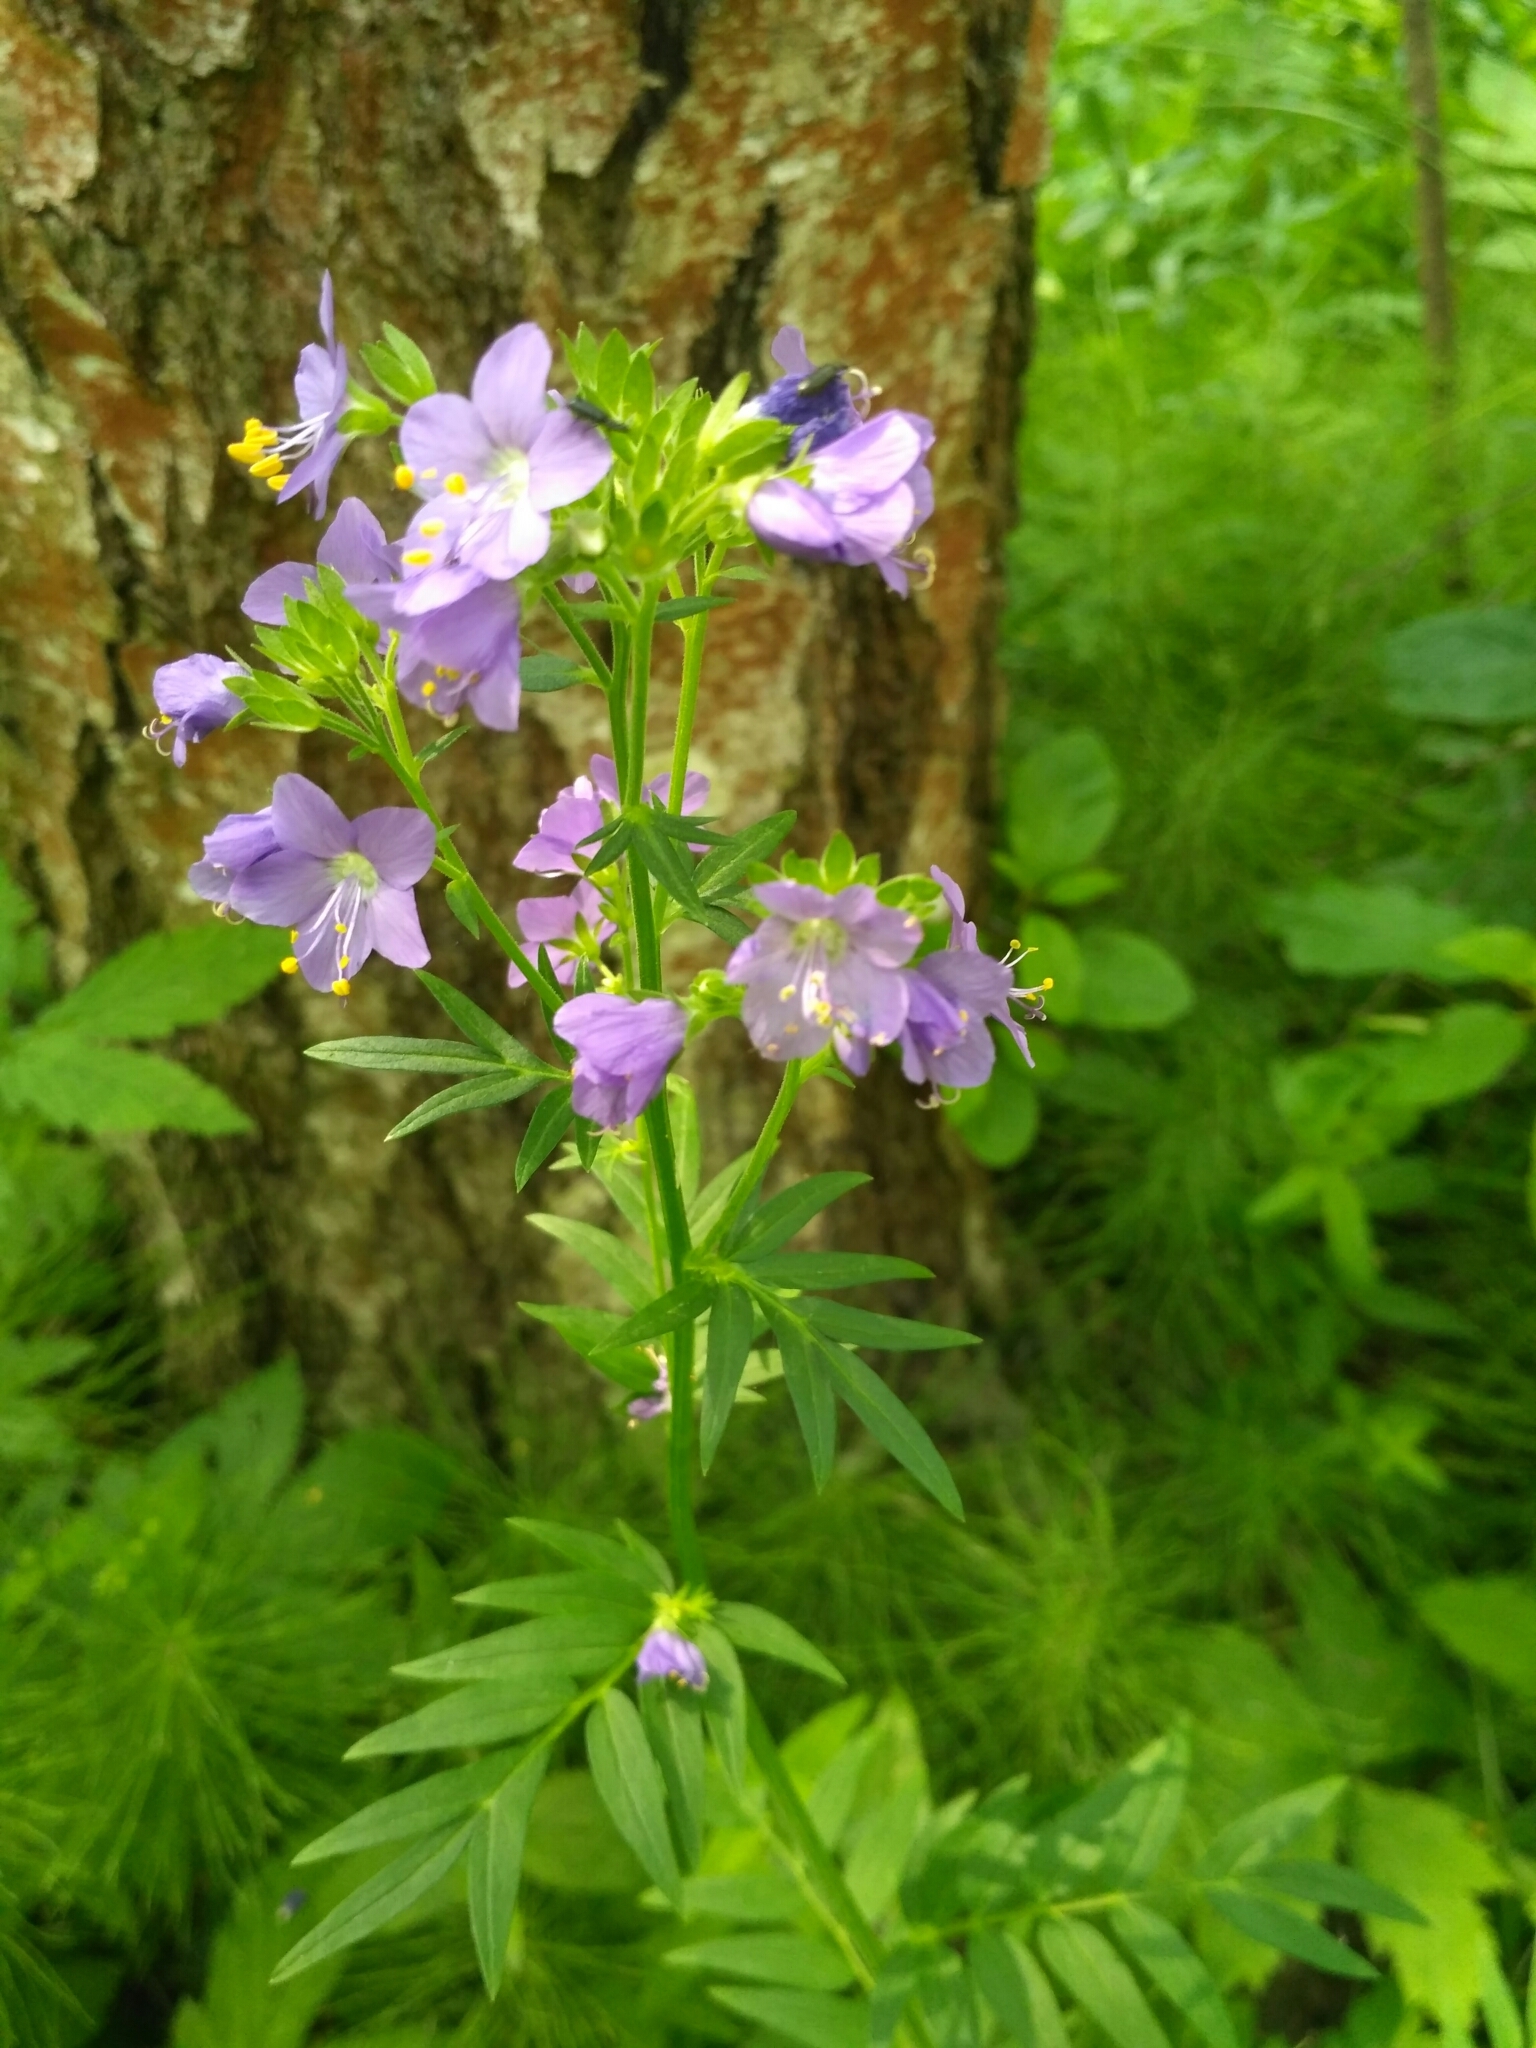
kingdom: Plantae
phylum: Tracheophyta
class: Magnoliopsida
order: Ericales
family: Polemoniaceae
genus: Polemonium
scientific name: Polemonium caeruleum
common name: Jacob's-ladder
